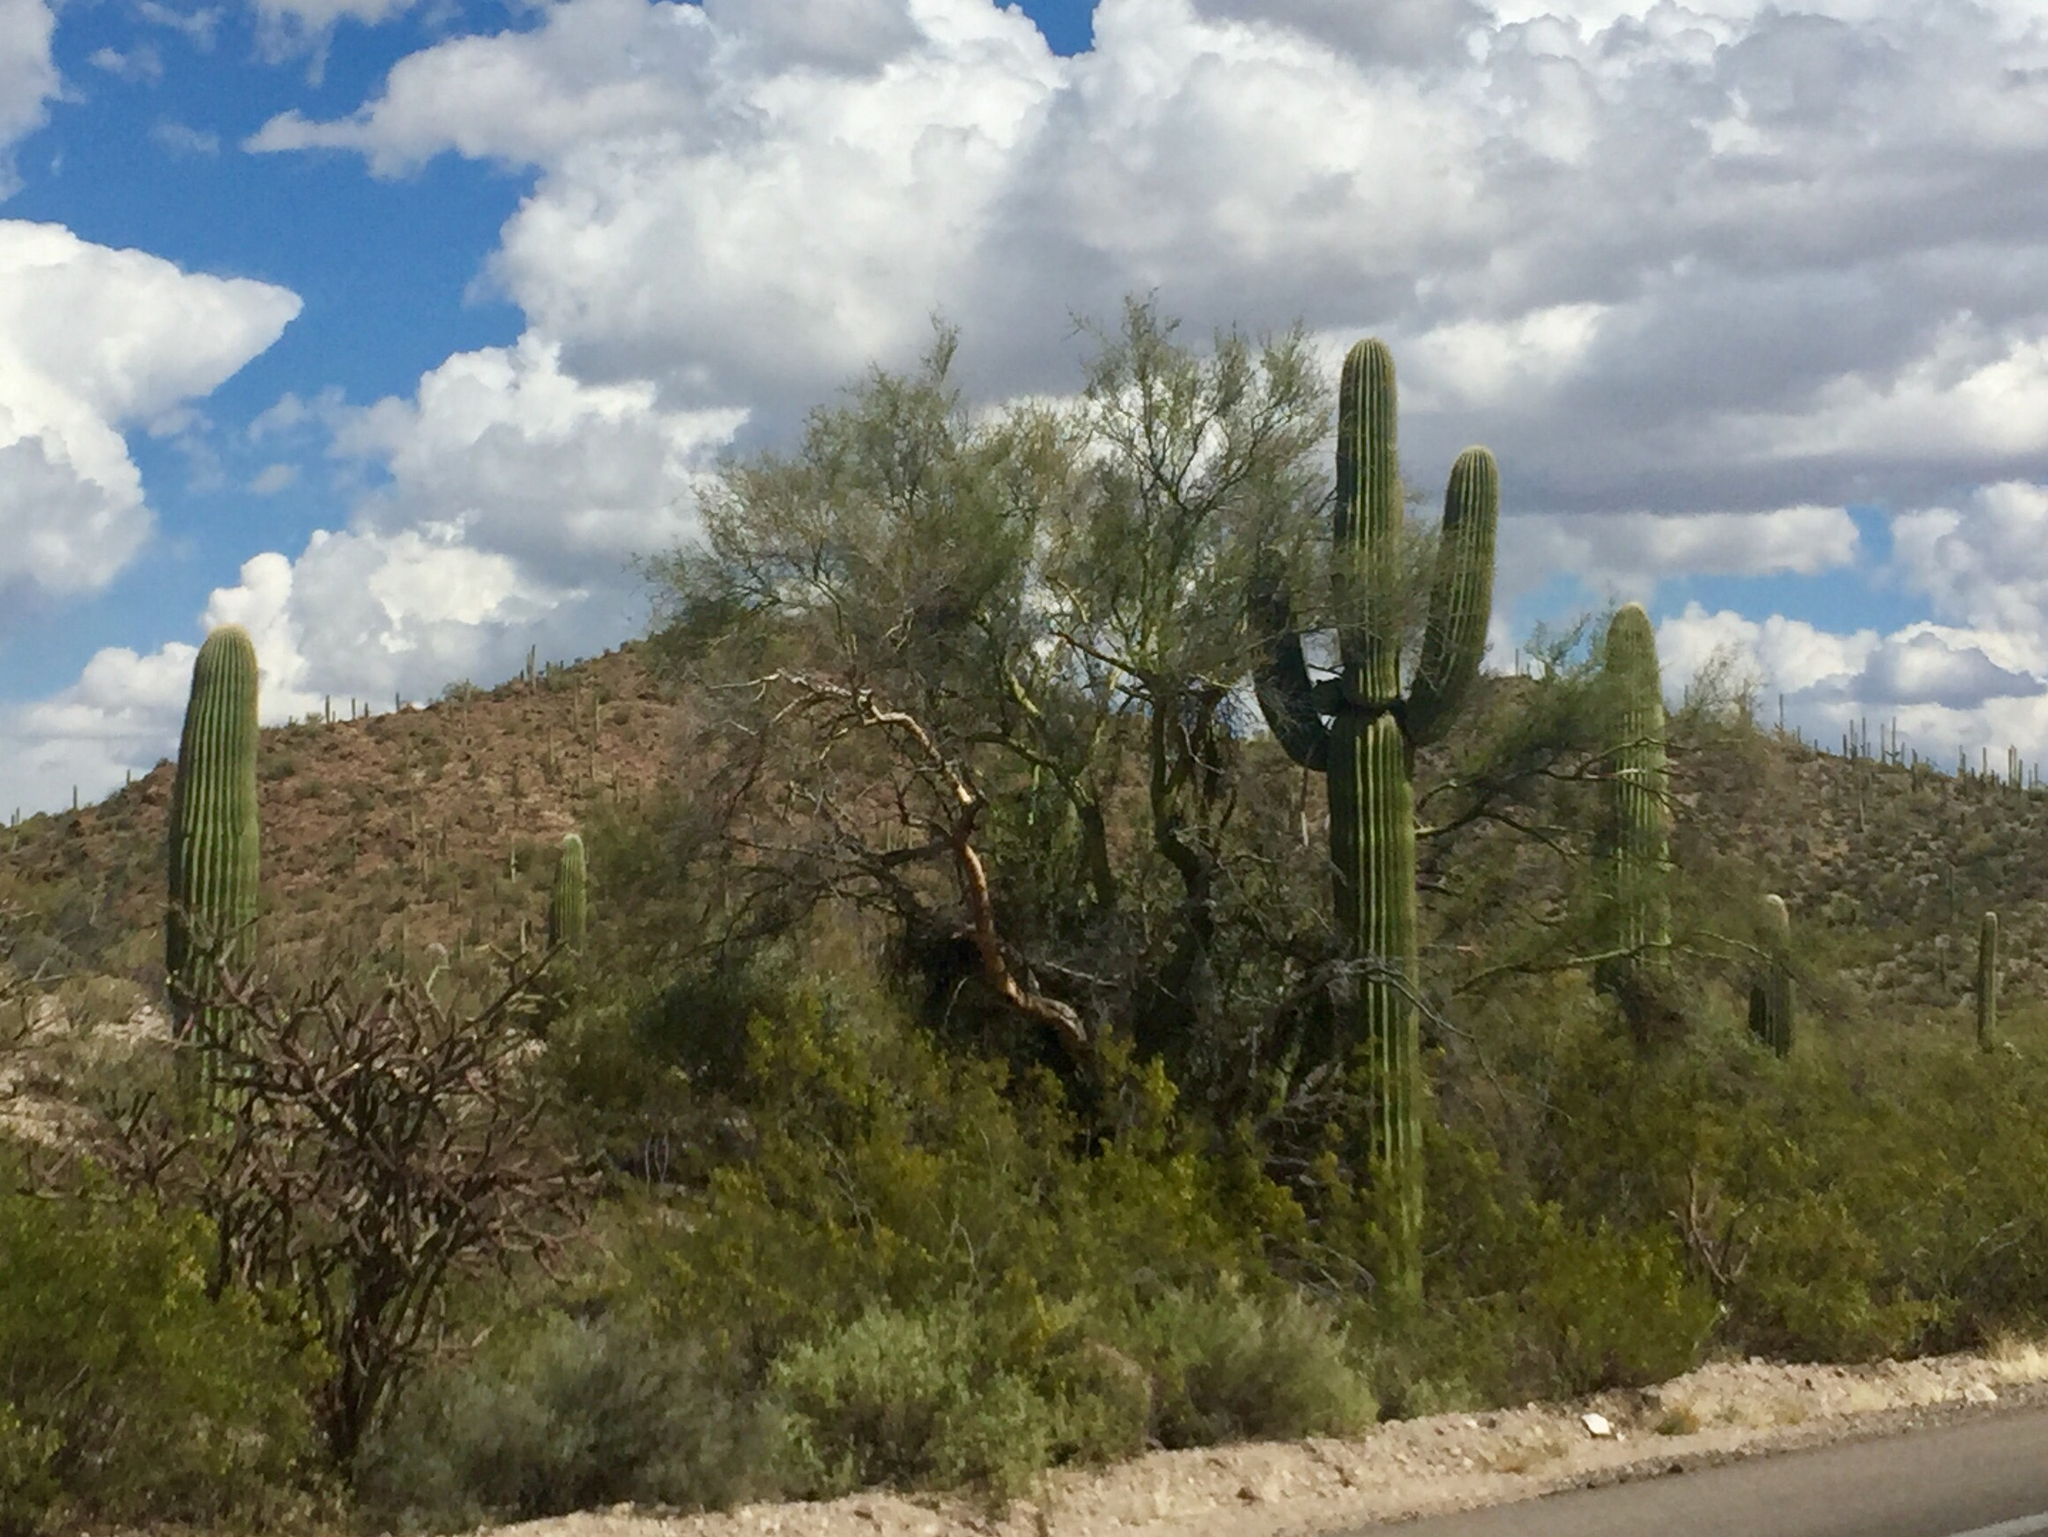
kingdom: Plantae
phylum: Tracheophyta
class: Magnoliopsida
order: Fabales
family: Fabaceae
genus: Parkinsonia
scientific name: Parkinsonia microphylla
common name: Yellow paloverde
